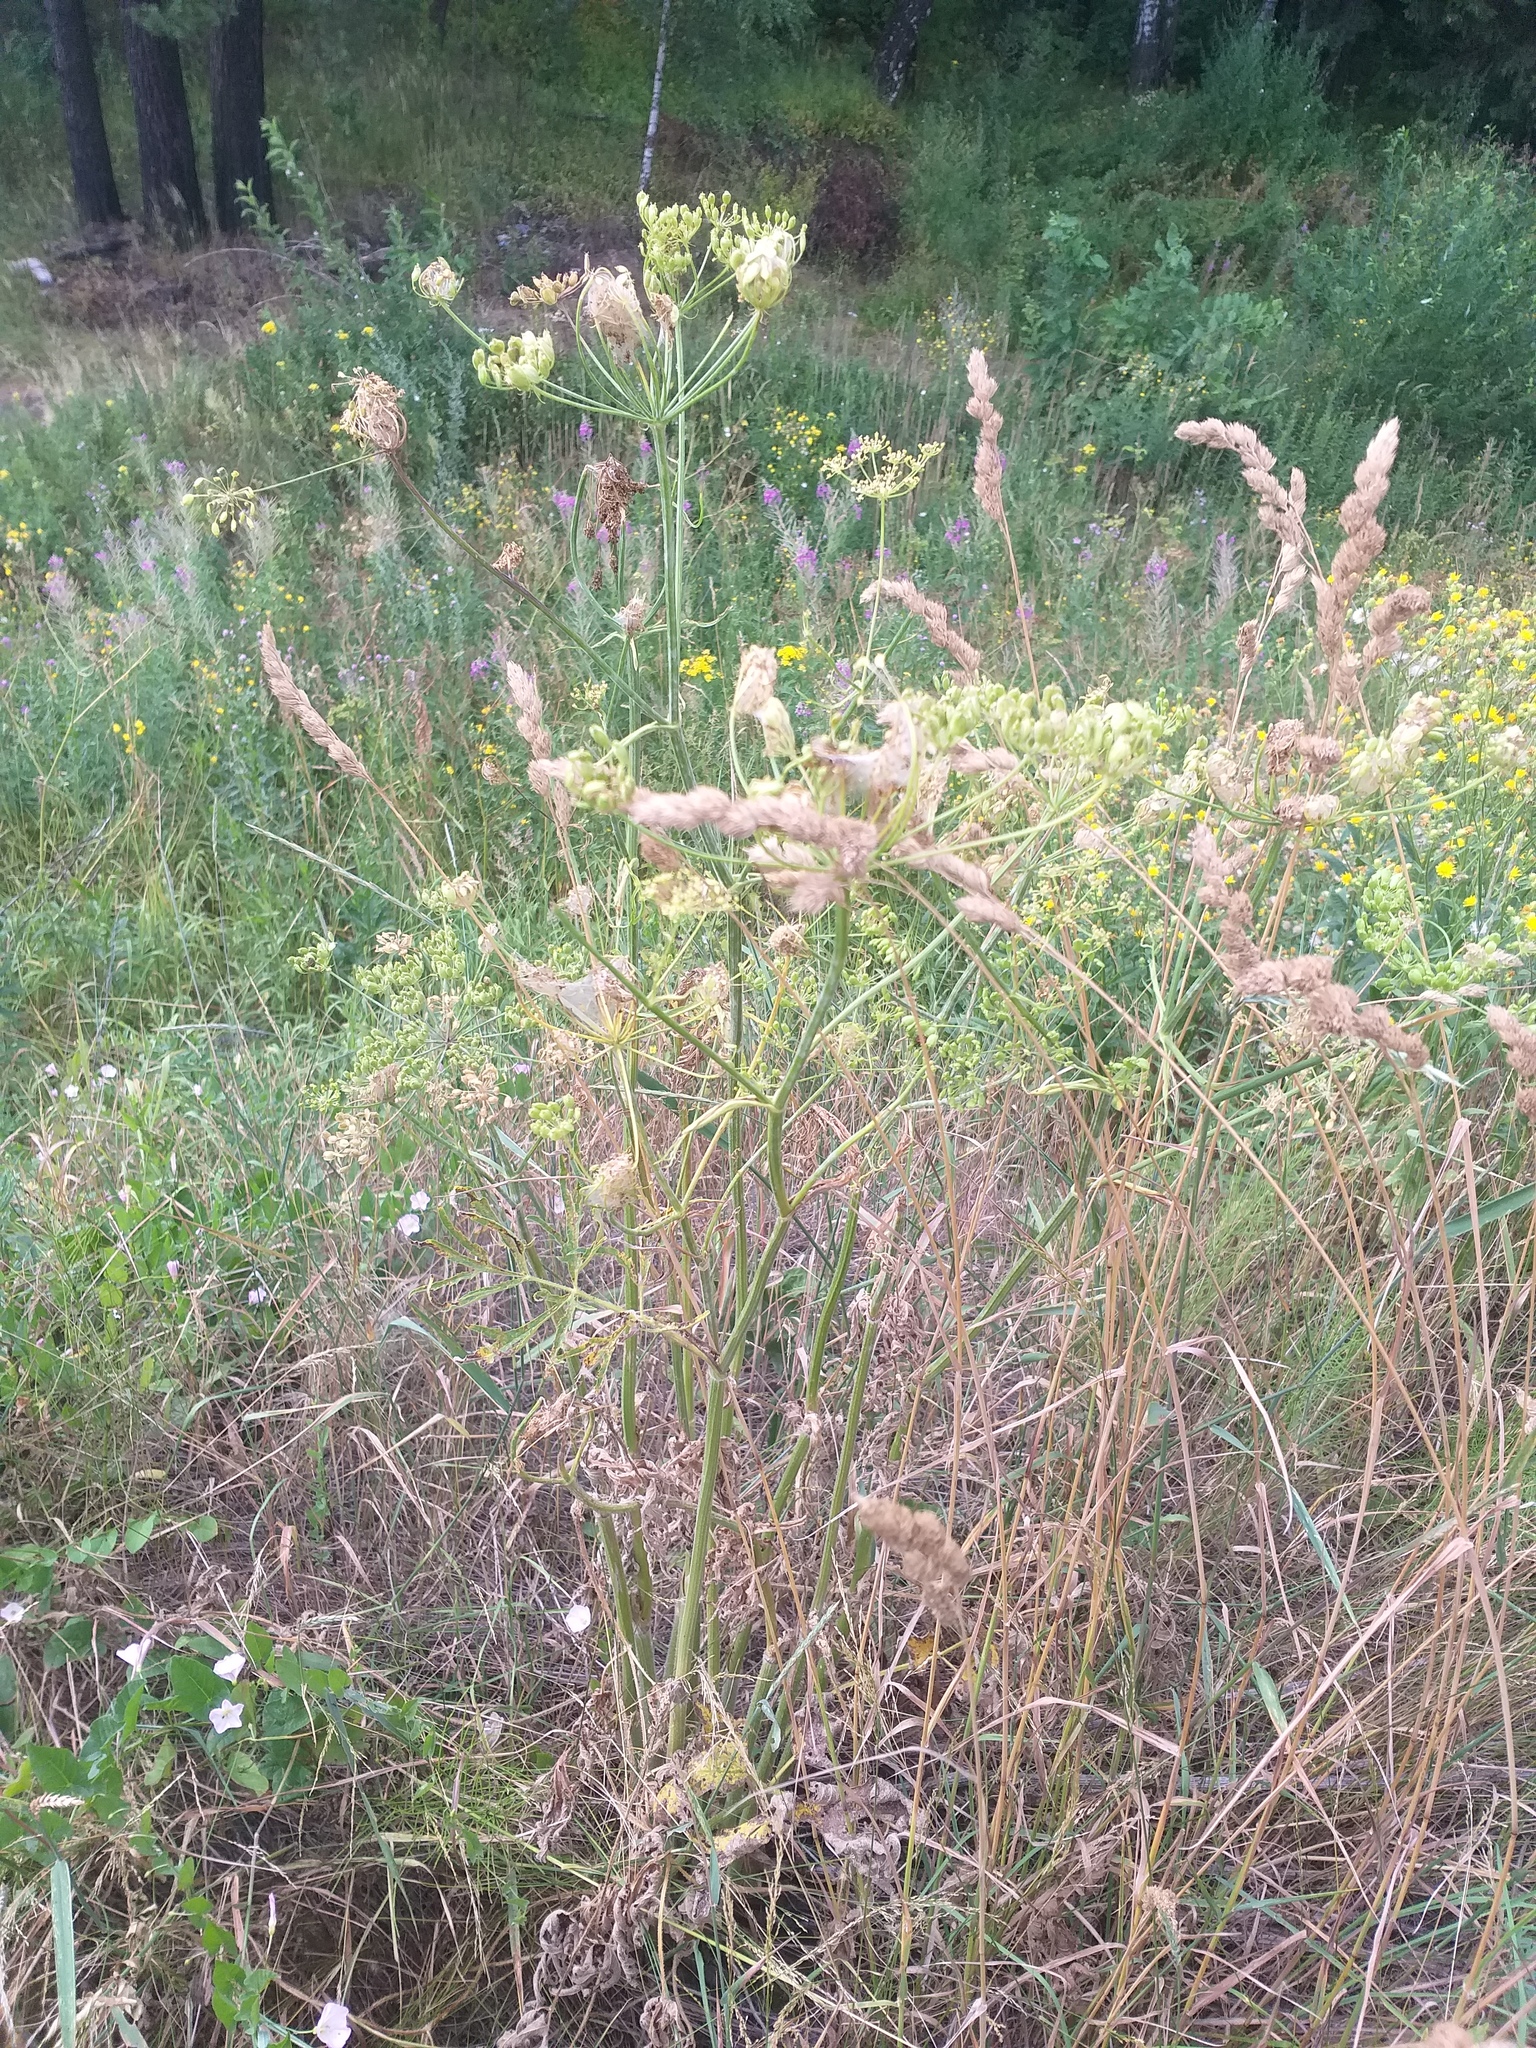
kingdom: Plantae
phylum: Tracheophyta
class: Magnoliopsida
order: Apiales
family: Apiaceae
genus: Heracleum
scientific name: Heracleum sphondylium
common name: Hogweed
